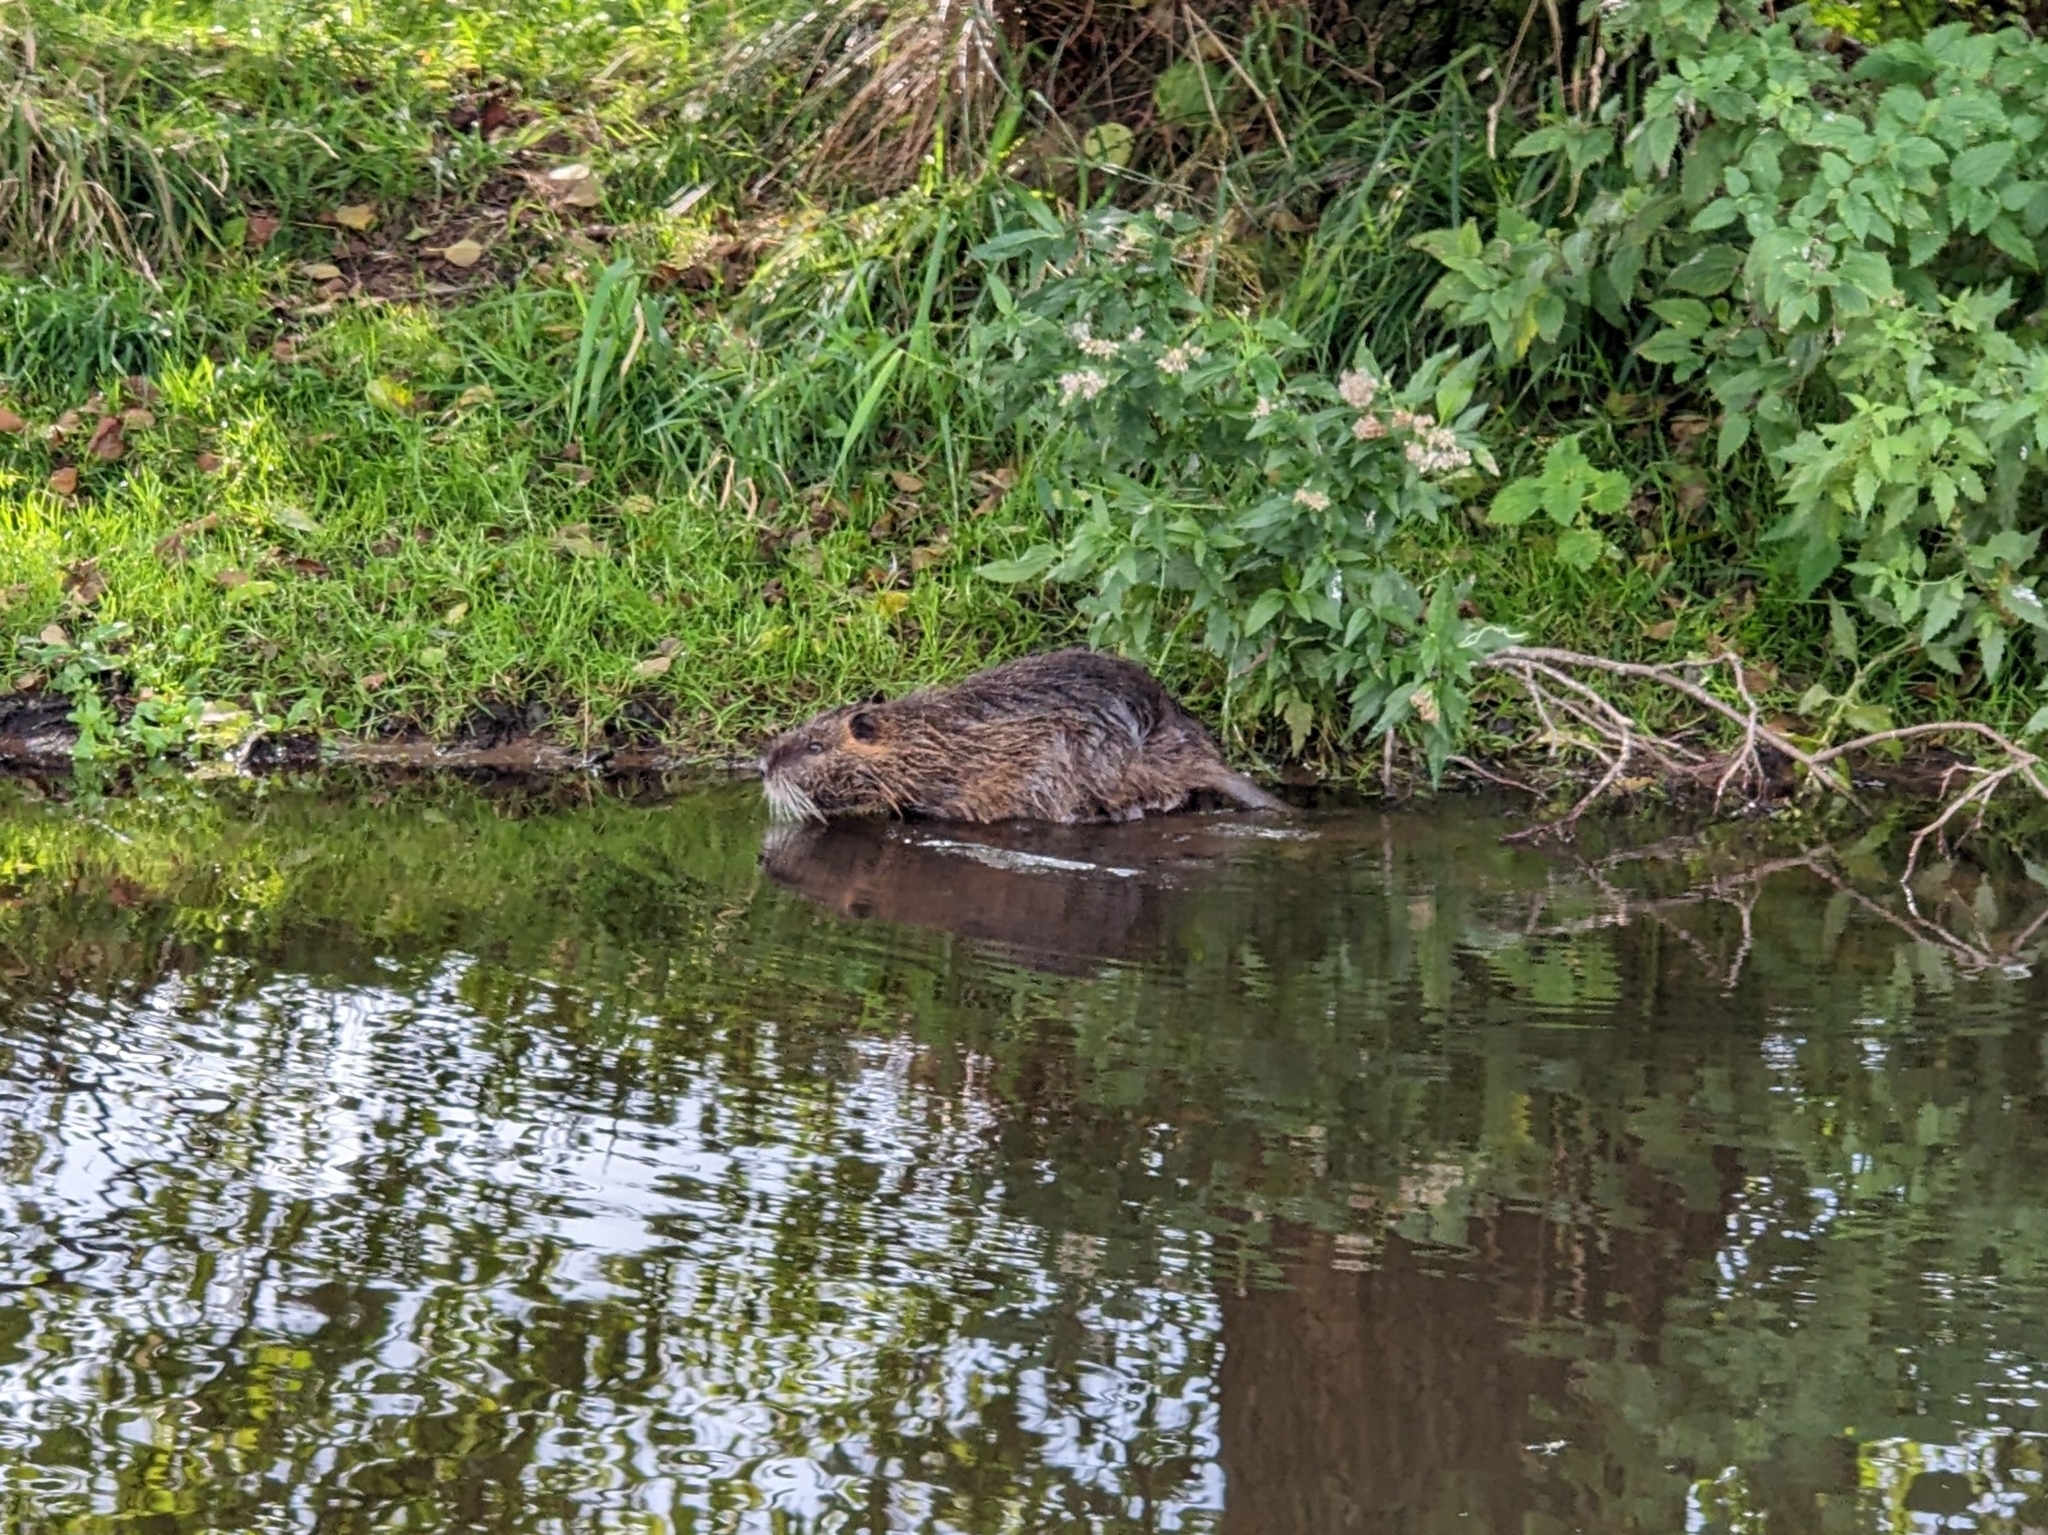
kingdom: Animalia
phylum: Chordata
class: Mammalia
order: Rodentia
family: Myocastoridae
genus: Myocastor
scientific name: Myocastor coypus
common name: Coypu
